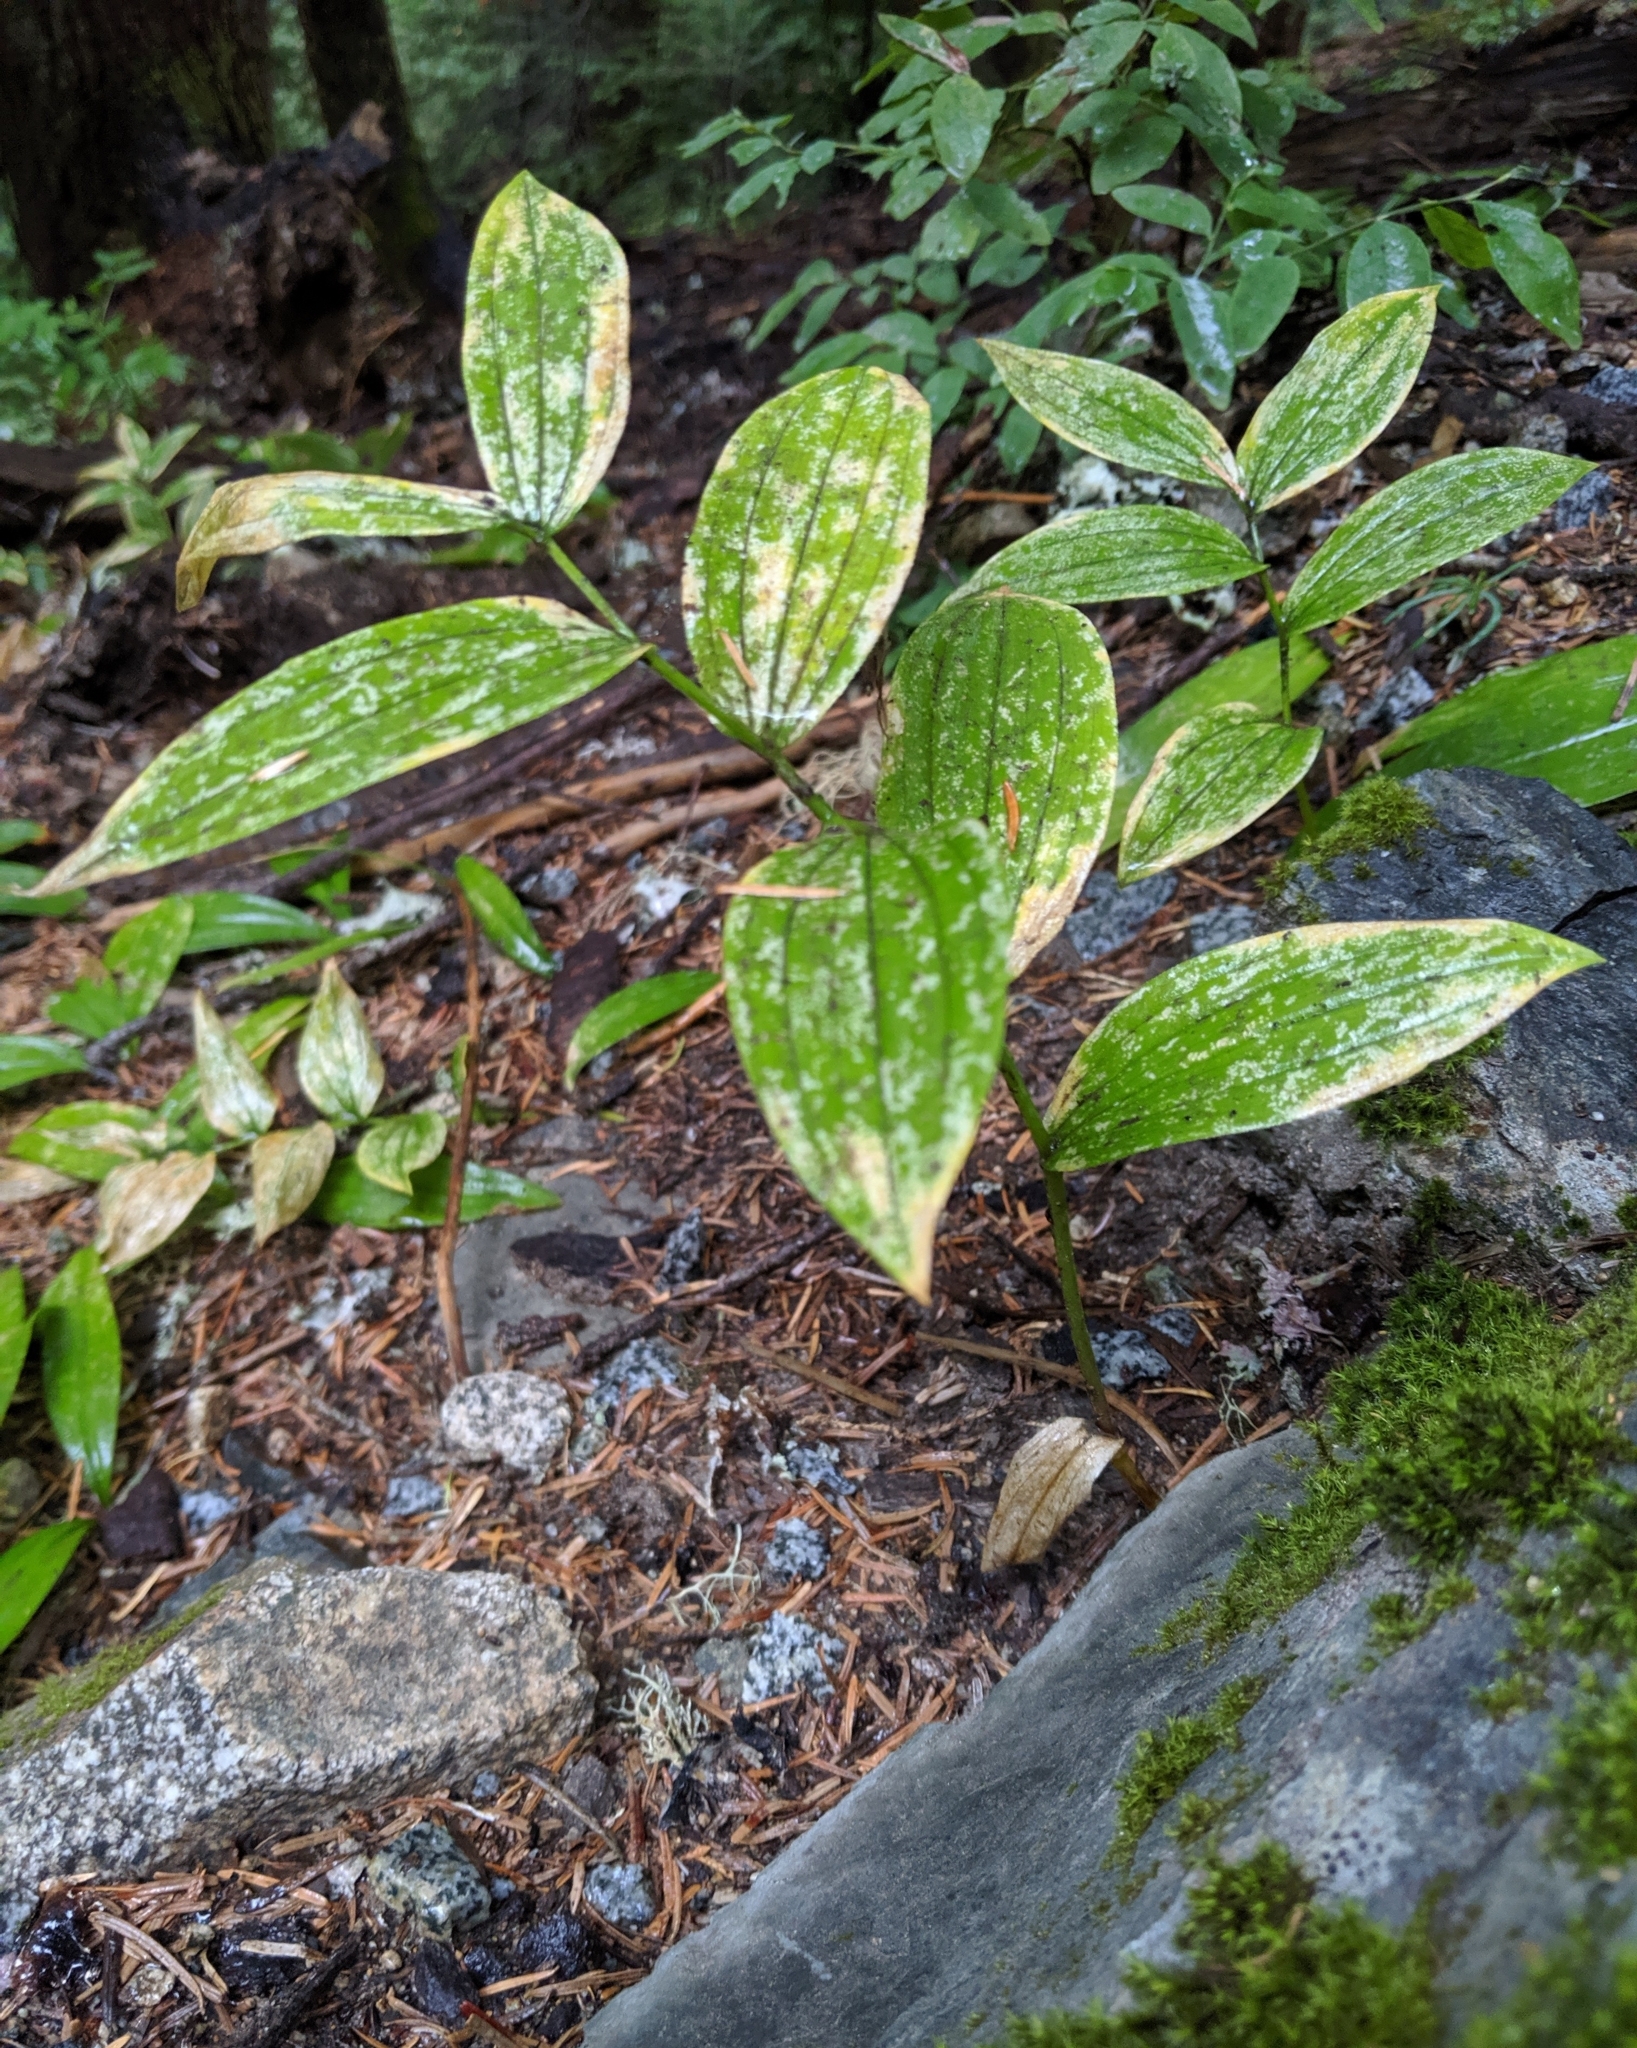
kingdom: Plantae
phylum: Tracheophyta
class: Liliopsida
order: Asparagales
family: Asparagaceae
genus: Maianthemum
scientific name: Maianthemum racemosum
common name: False spikenard
